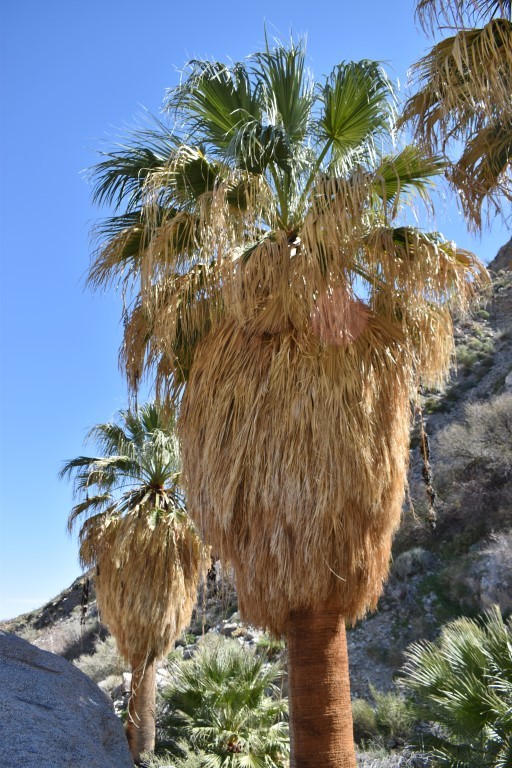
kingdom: Plantae
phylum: Tracheophyta
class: Liliopsida
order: Arecales
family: Arecaceae
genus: Washingtonia
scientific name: Washingtonia filifera
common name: California fan palm
